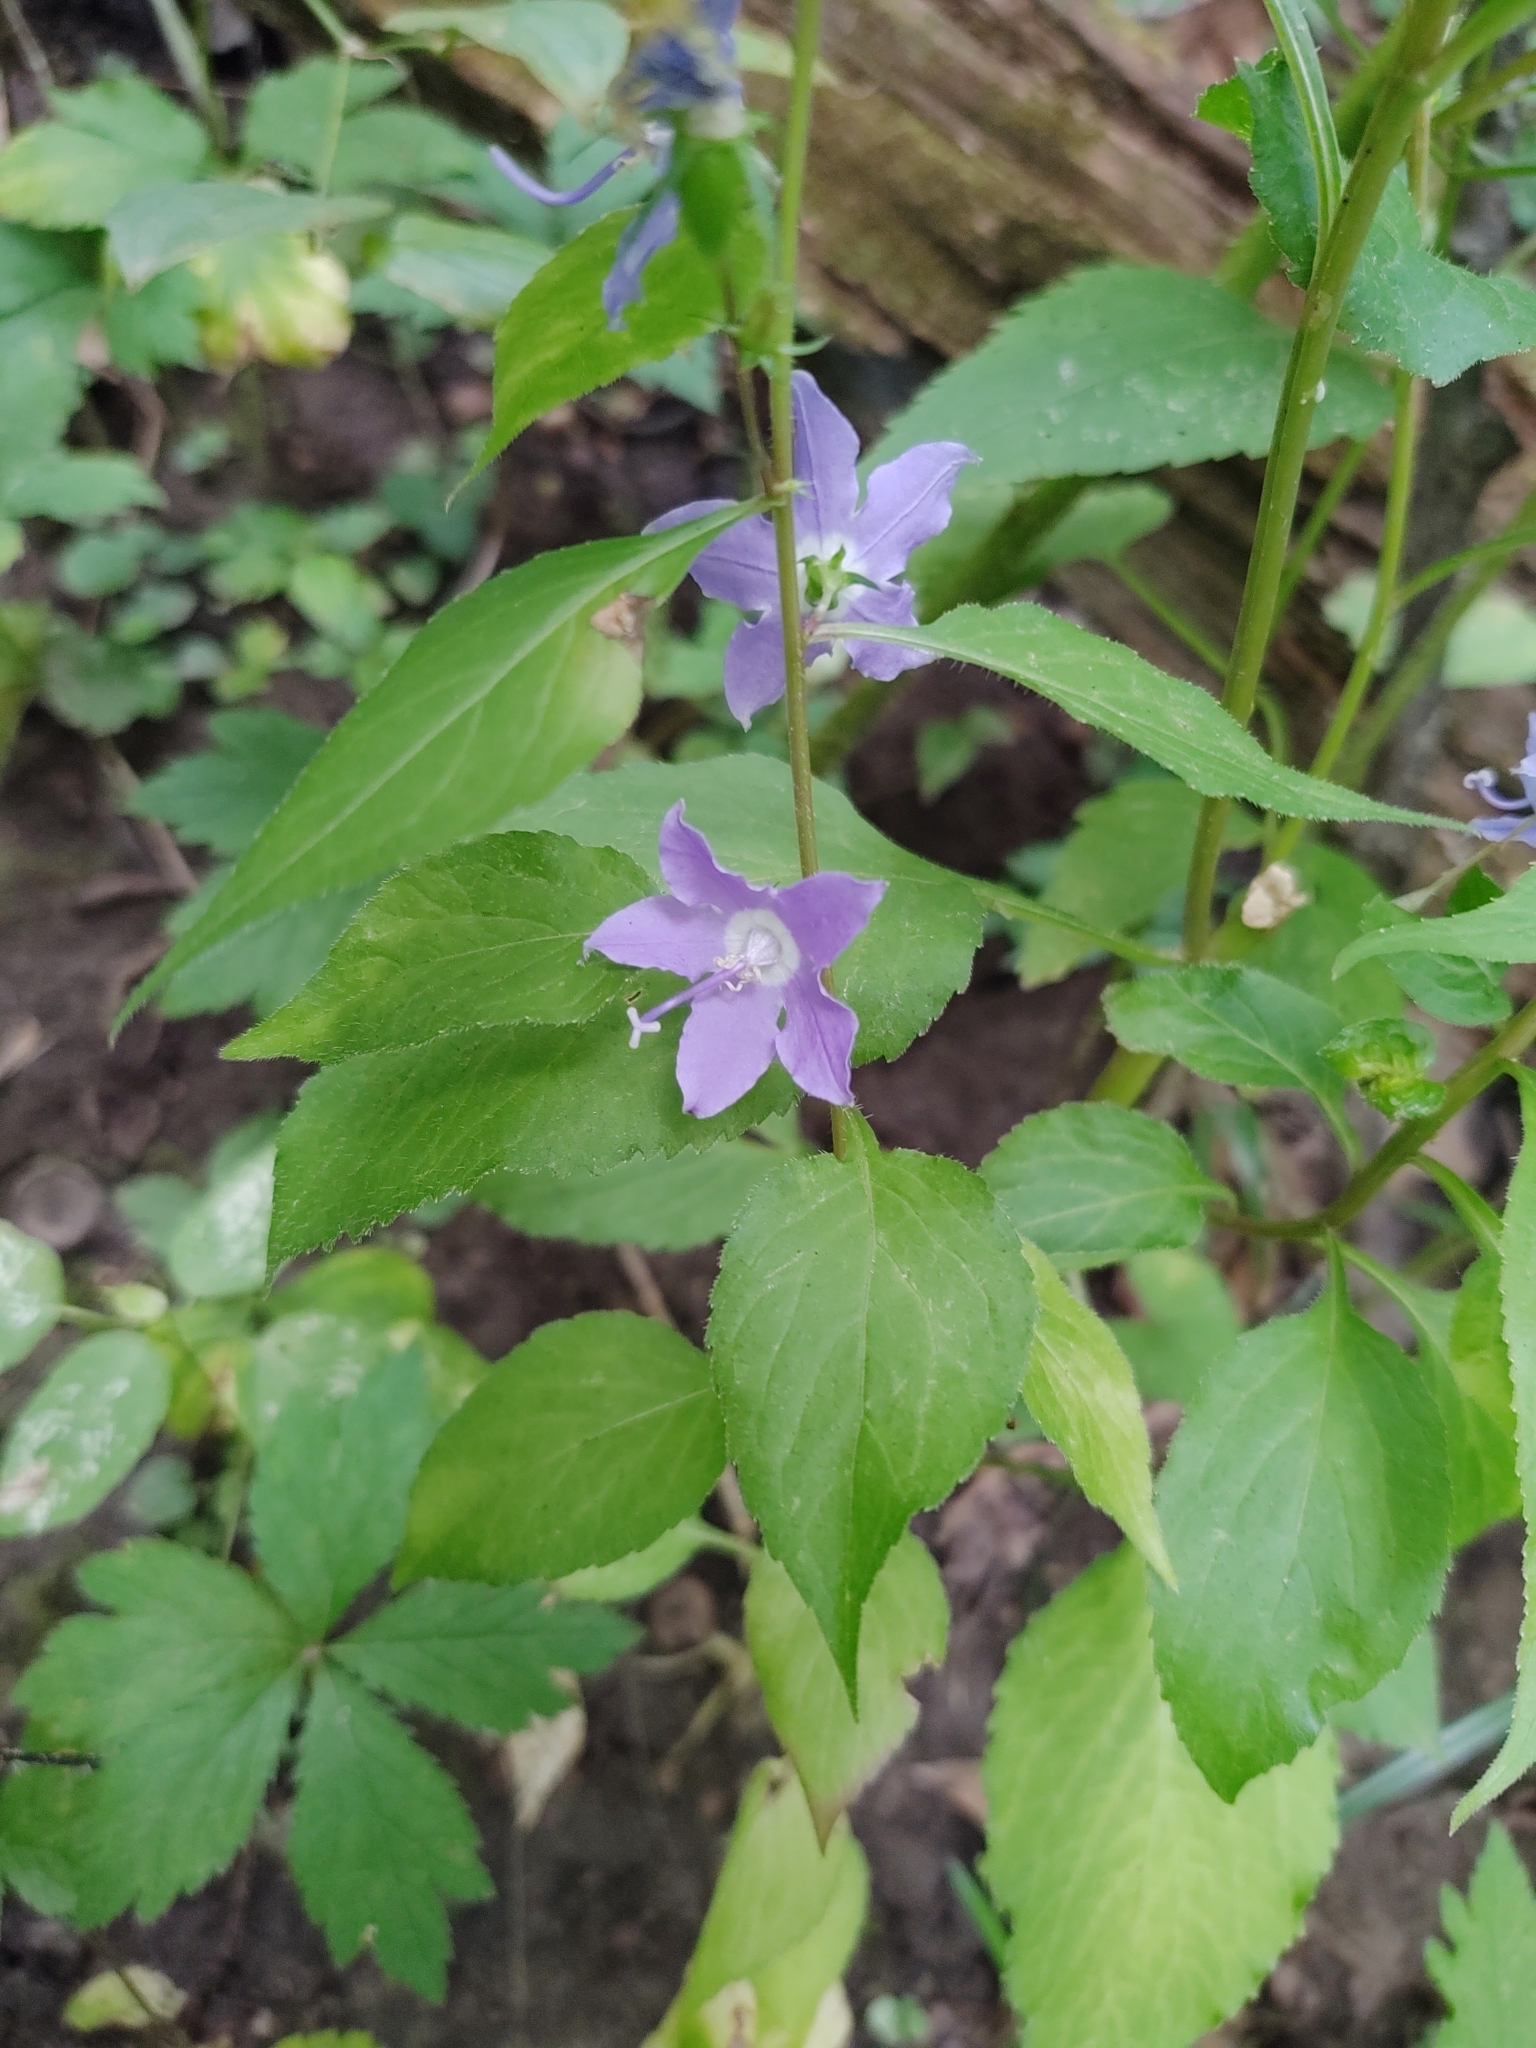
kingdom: Plantae
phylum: Tracheophyta
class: Magnoliopsida
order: Asterales
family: Campanulaceae
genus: Campanulastrum
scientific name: Campanulastrum americanum
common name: American bellflower
